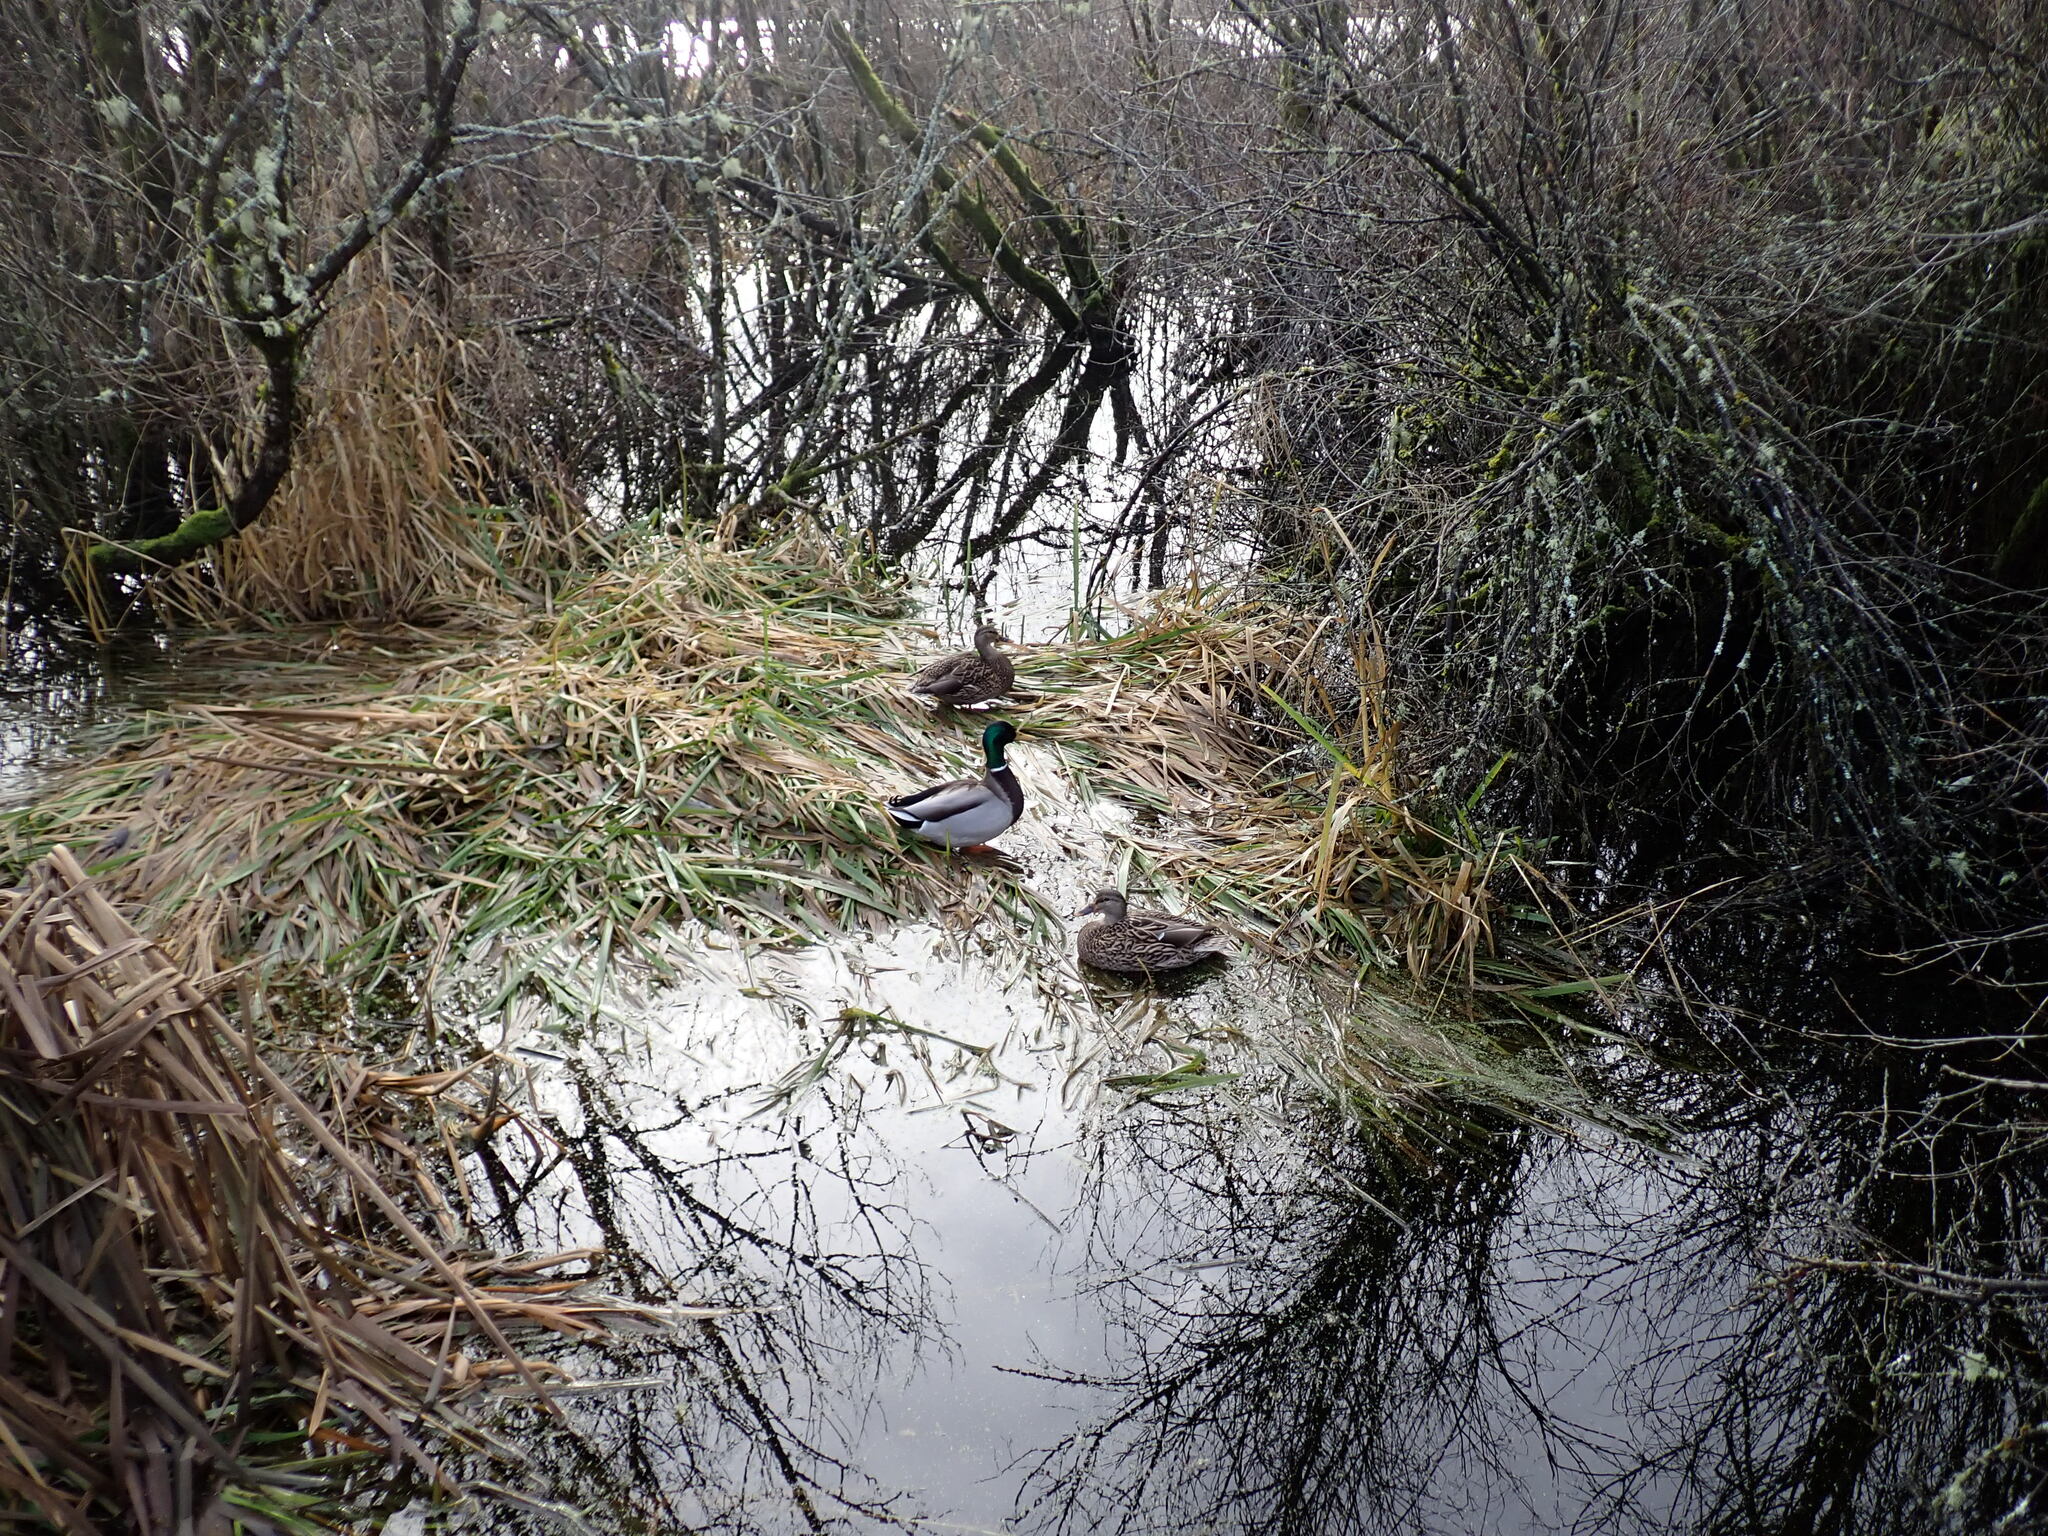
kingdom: Animalia
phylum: Chordata
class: Aves
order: Anseriformes
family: Anatidae
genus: Anas
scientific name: Anas platyrhynchos
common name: Mallard
